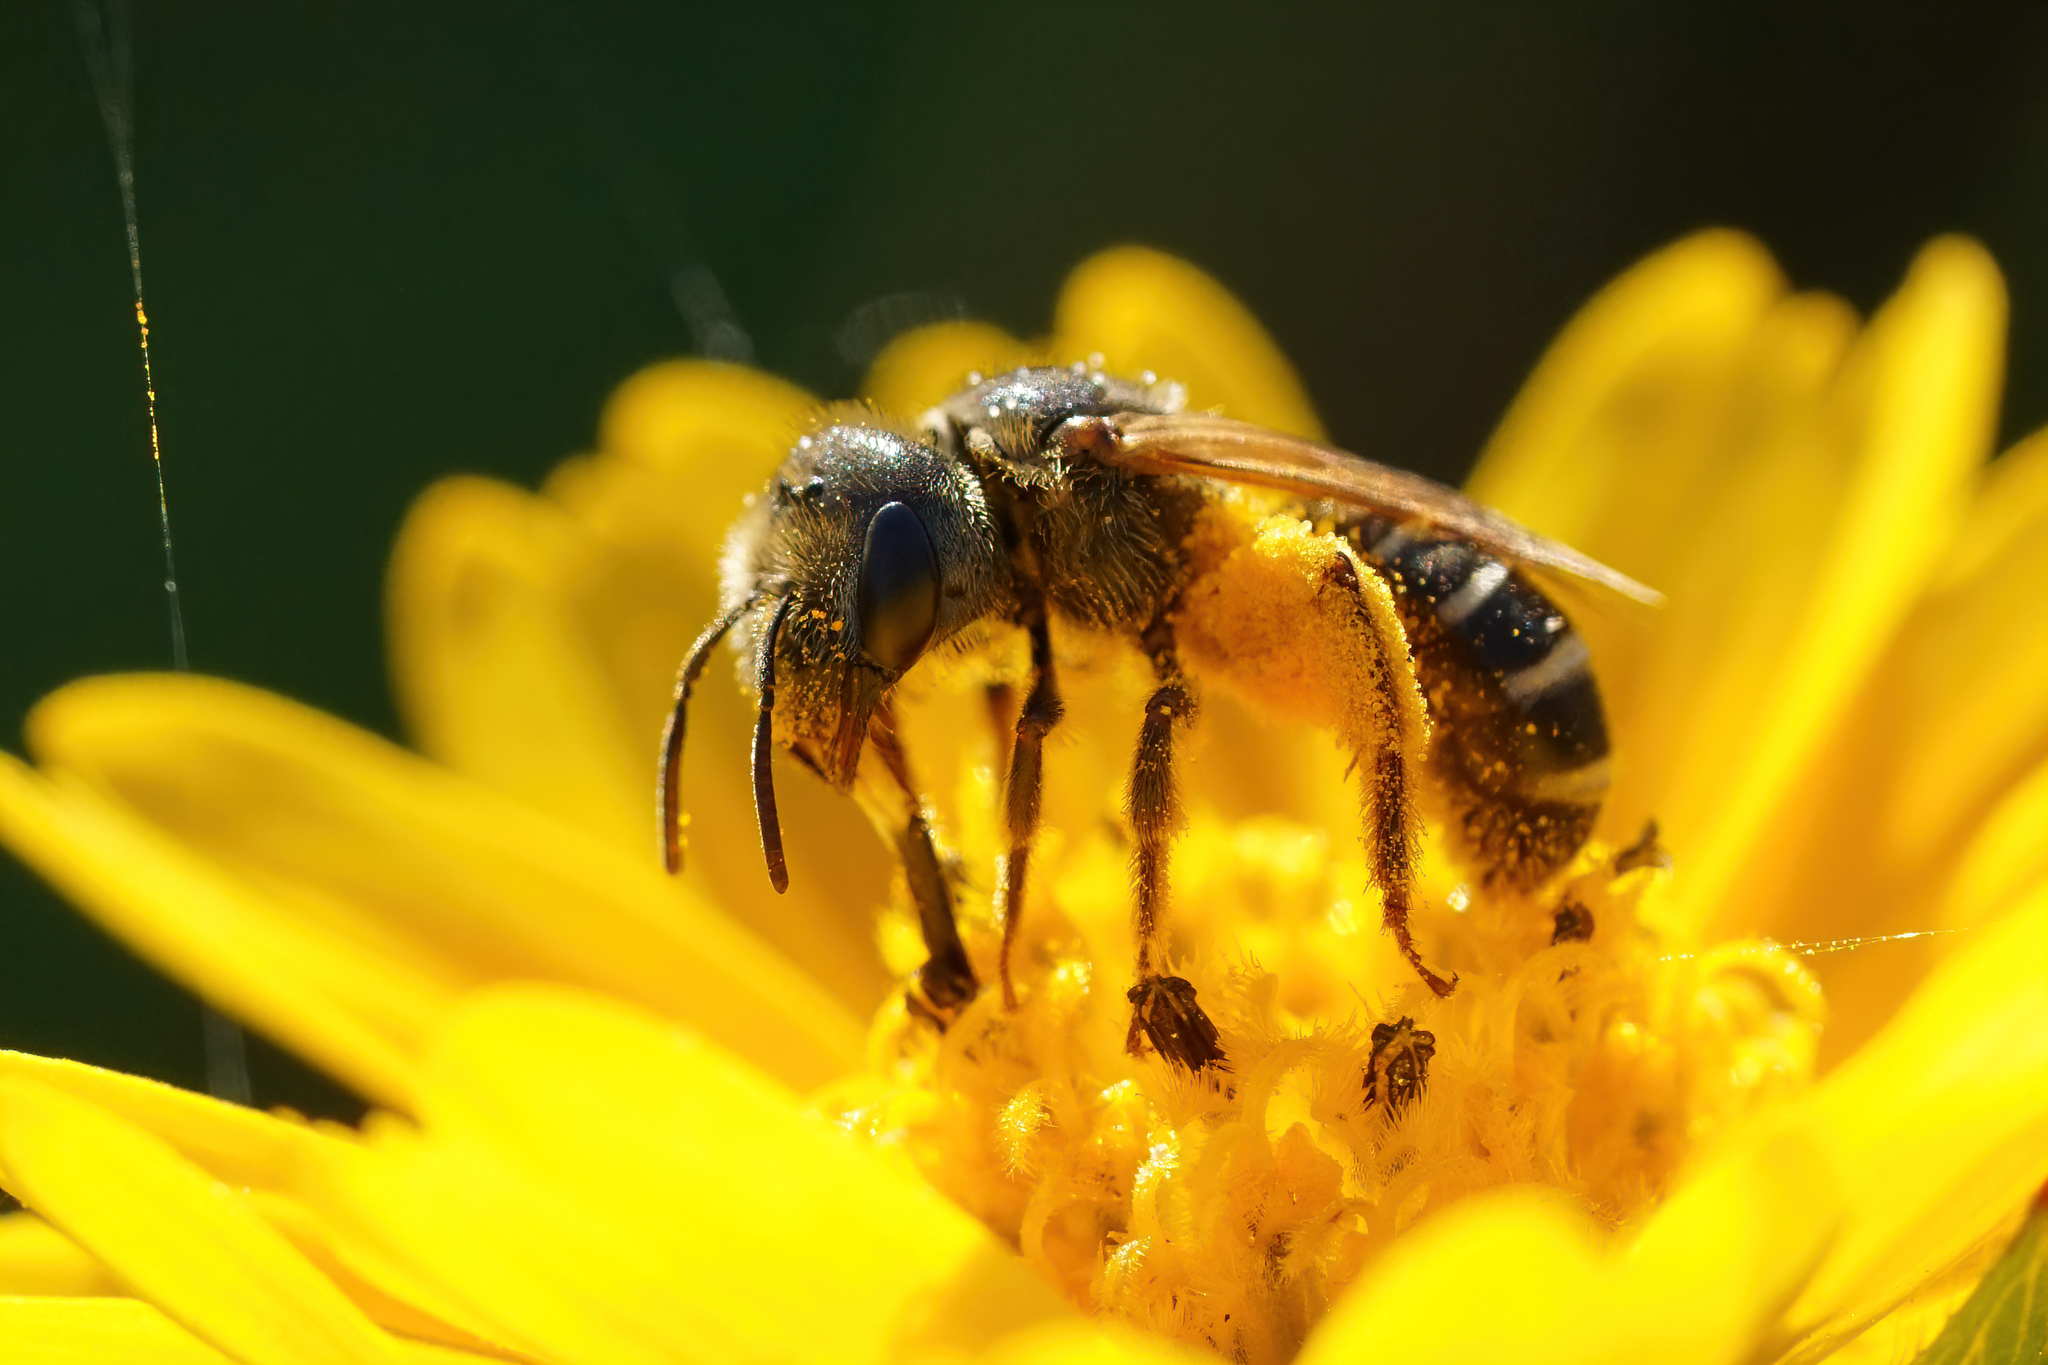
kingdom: Animalia
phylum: Arthropoda
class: Insecta
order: Hymenoptera
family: Halictidae
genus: Halictus
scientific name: Halictus poeyi
